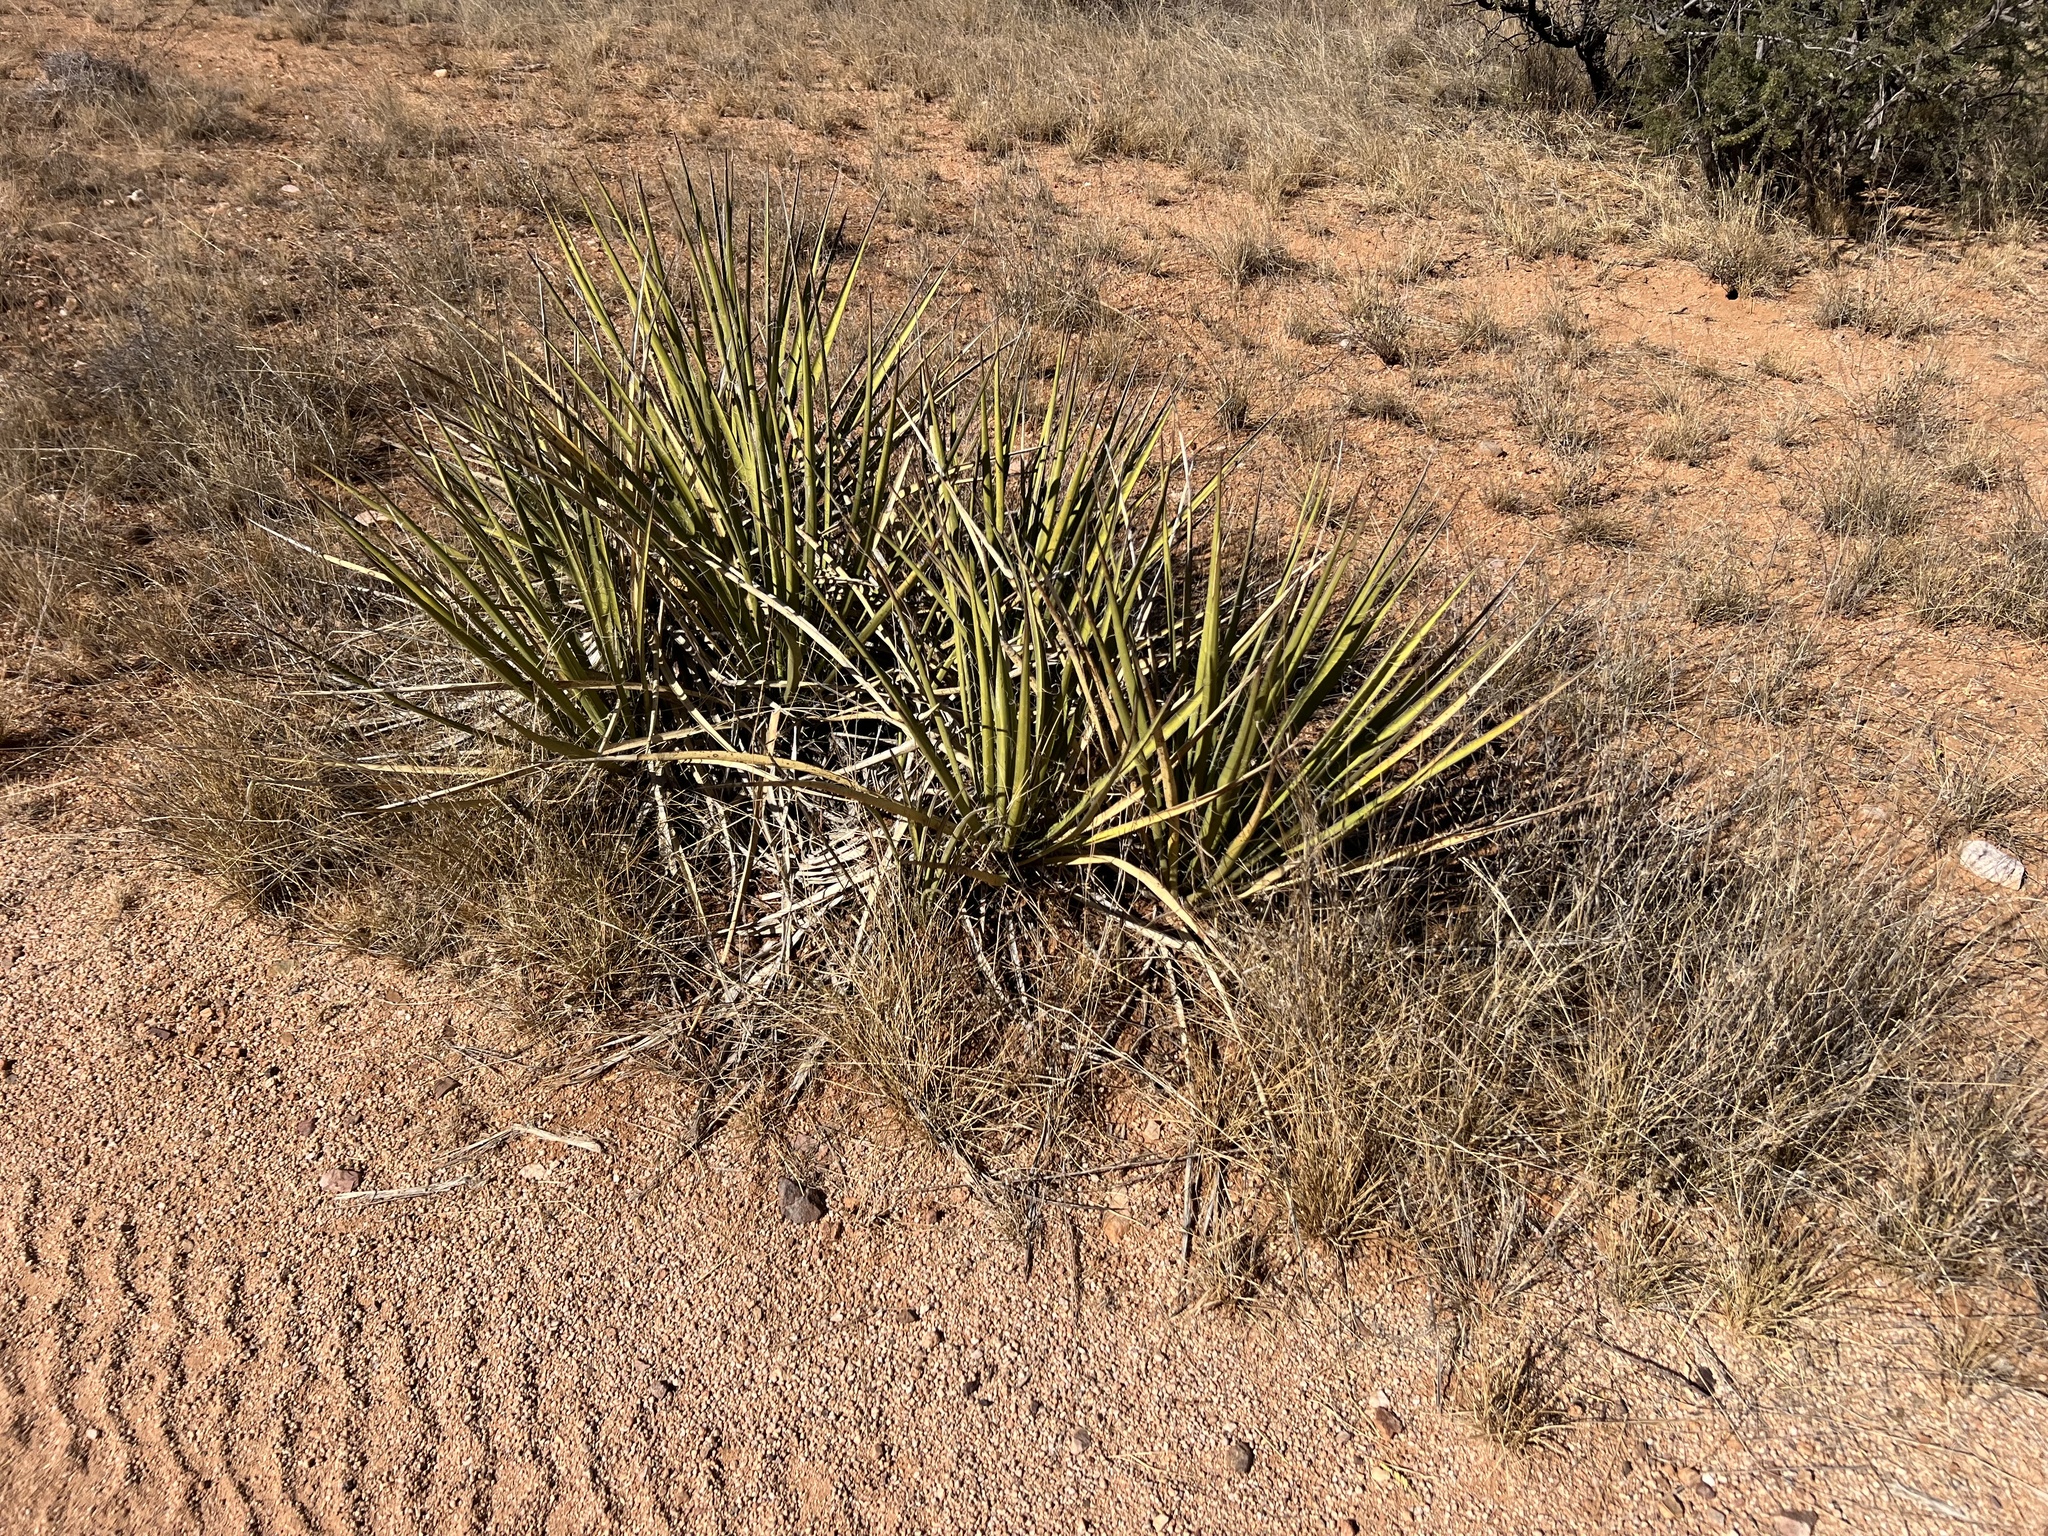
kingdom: Plantae
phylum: Tracheophyta
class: Liliopsida
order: Asparagales
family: Asparagaceae
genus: Yucca
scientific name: Yucca baccata
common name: Banana yucca
